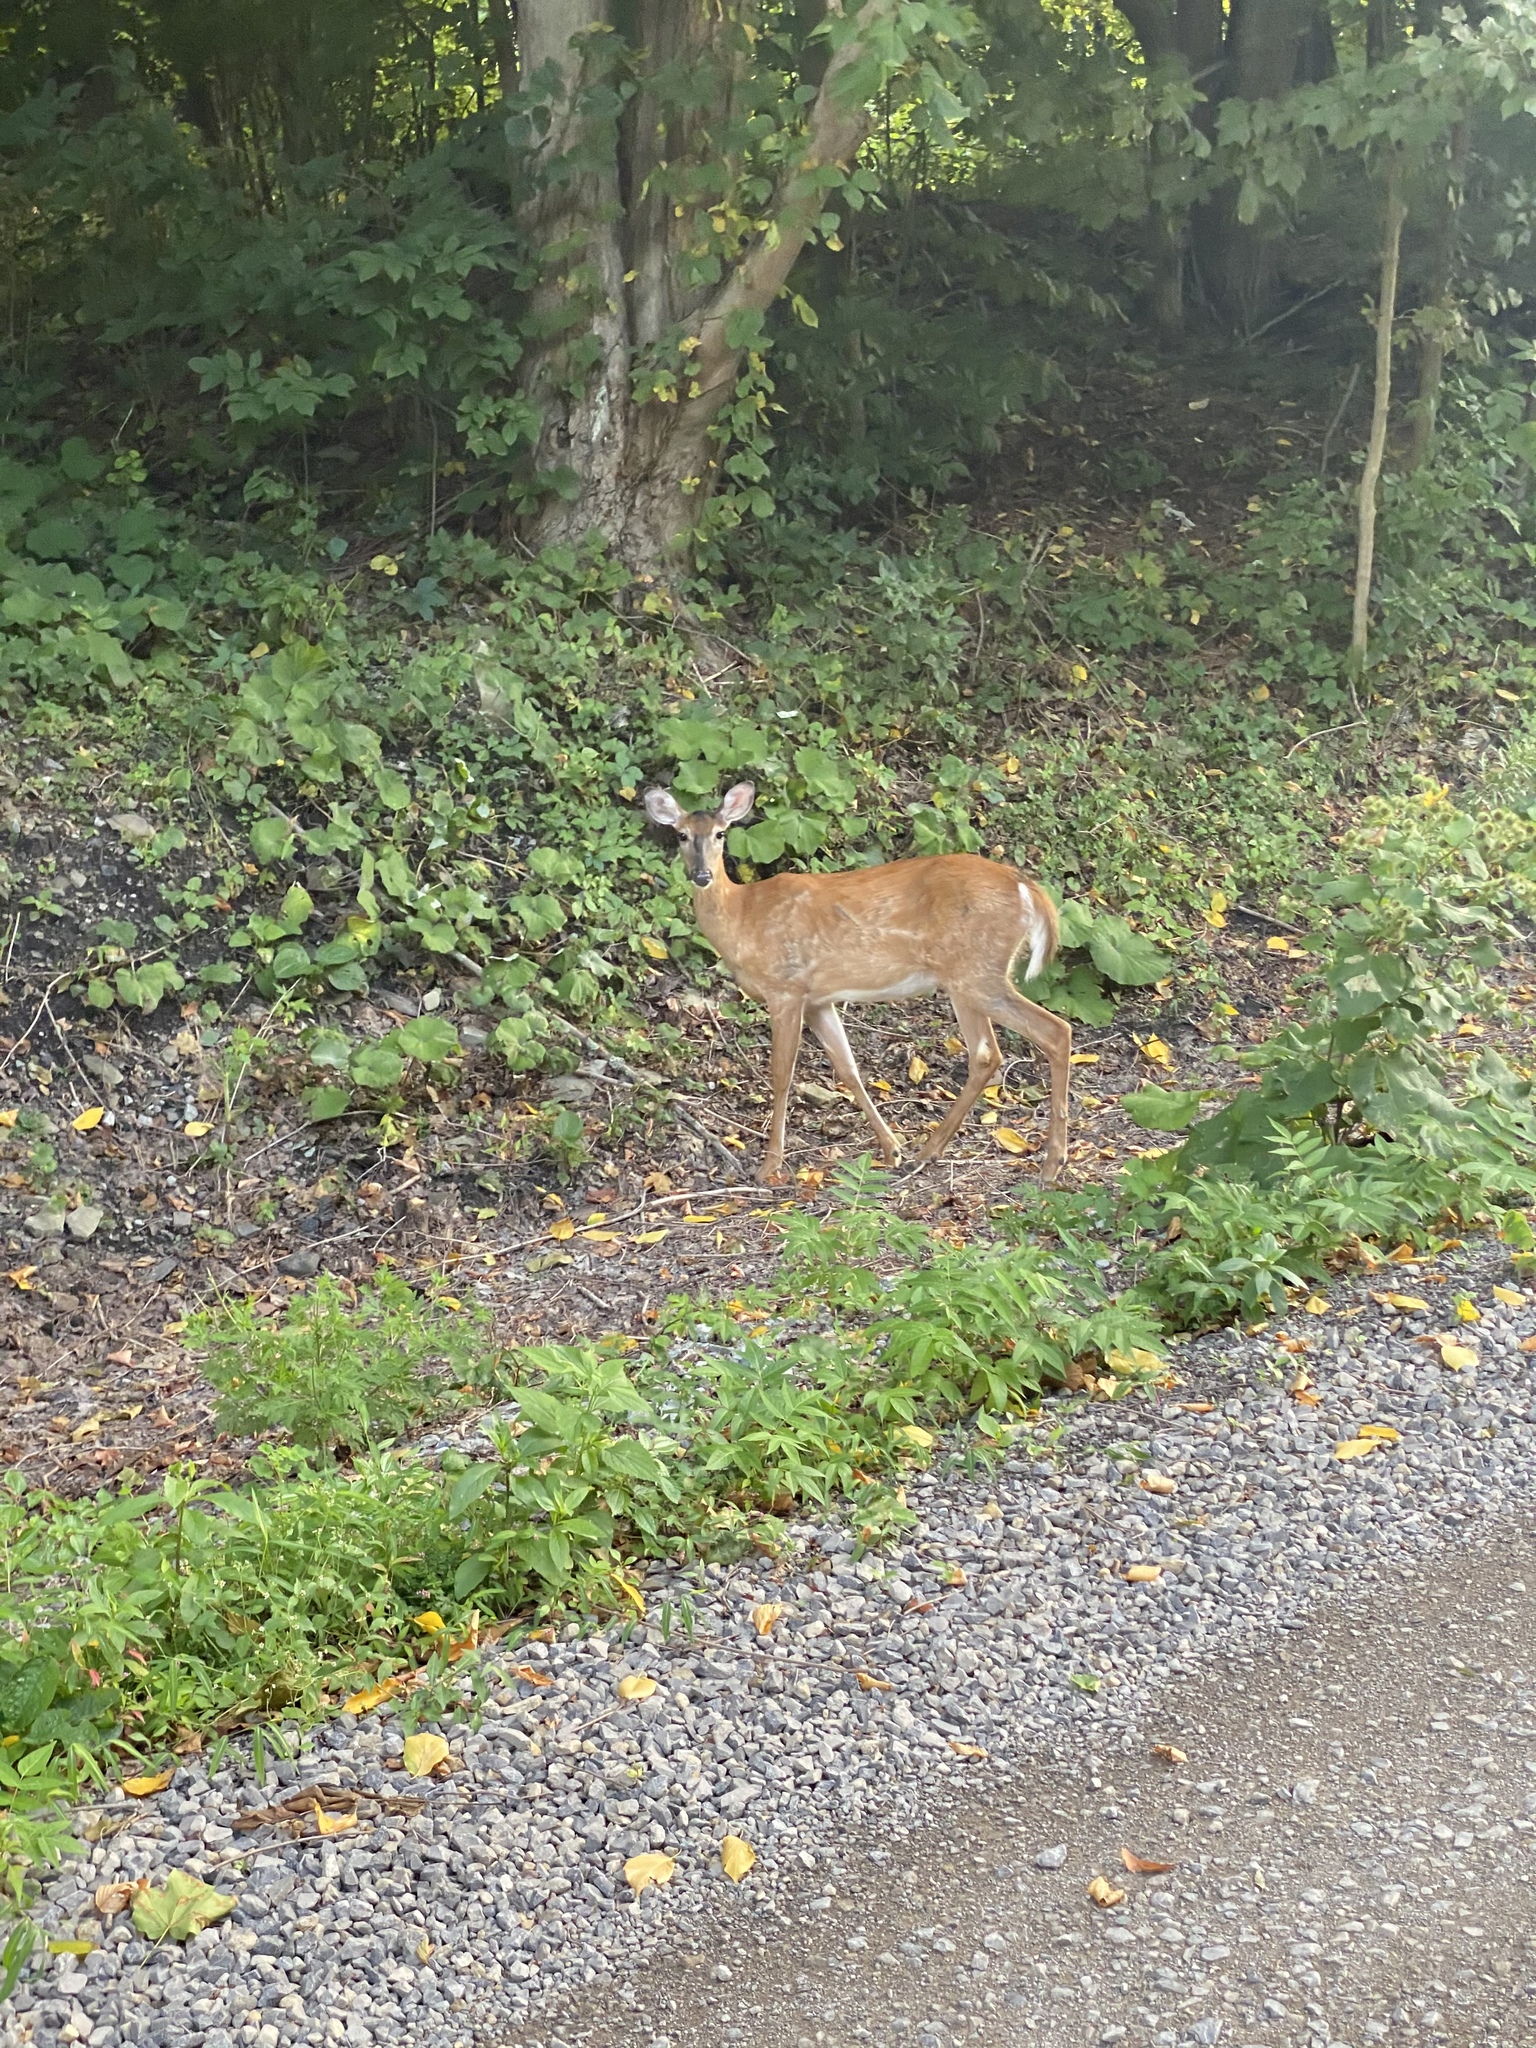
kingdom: Animalia
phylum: Chordata
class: Mammalia
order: Artiodactyla
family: Cervidae
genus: Odocoileus
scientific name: Odocoileus virginianus
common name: White-tailed deer
